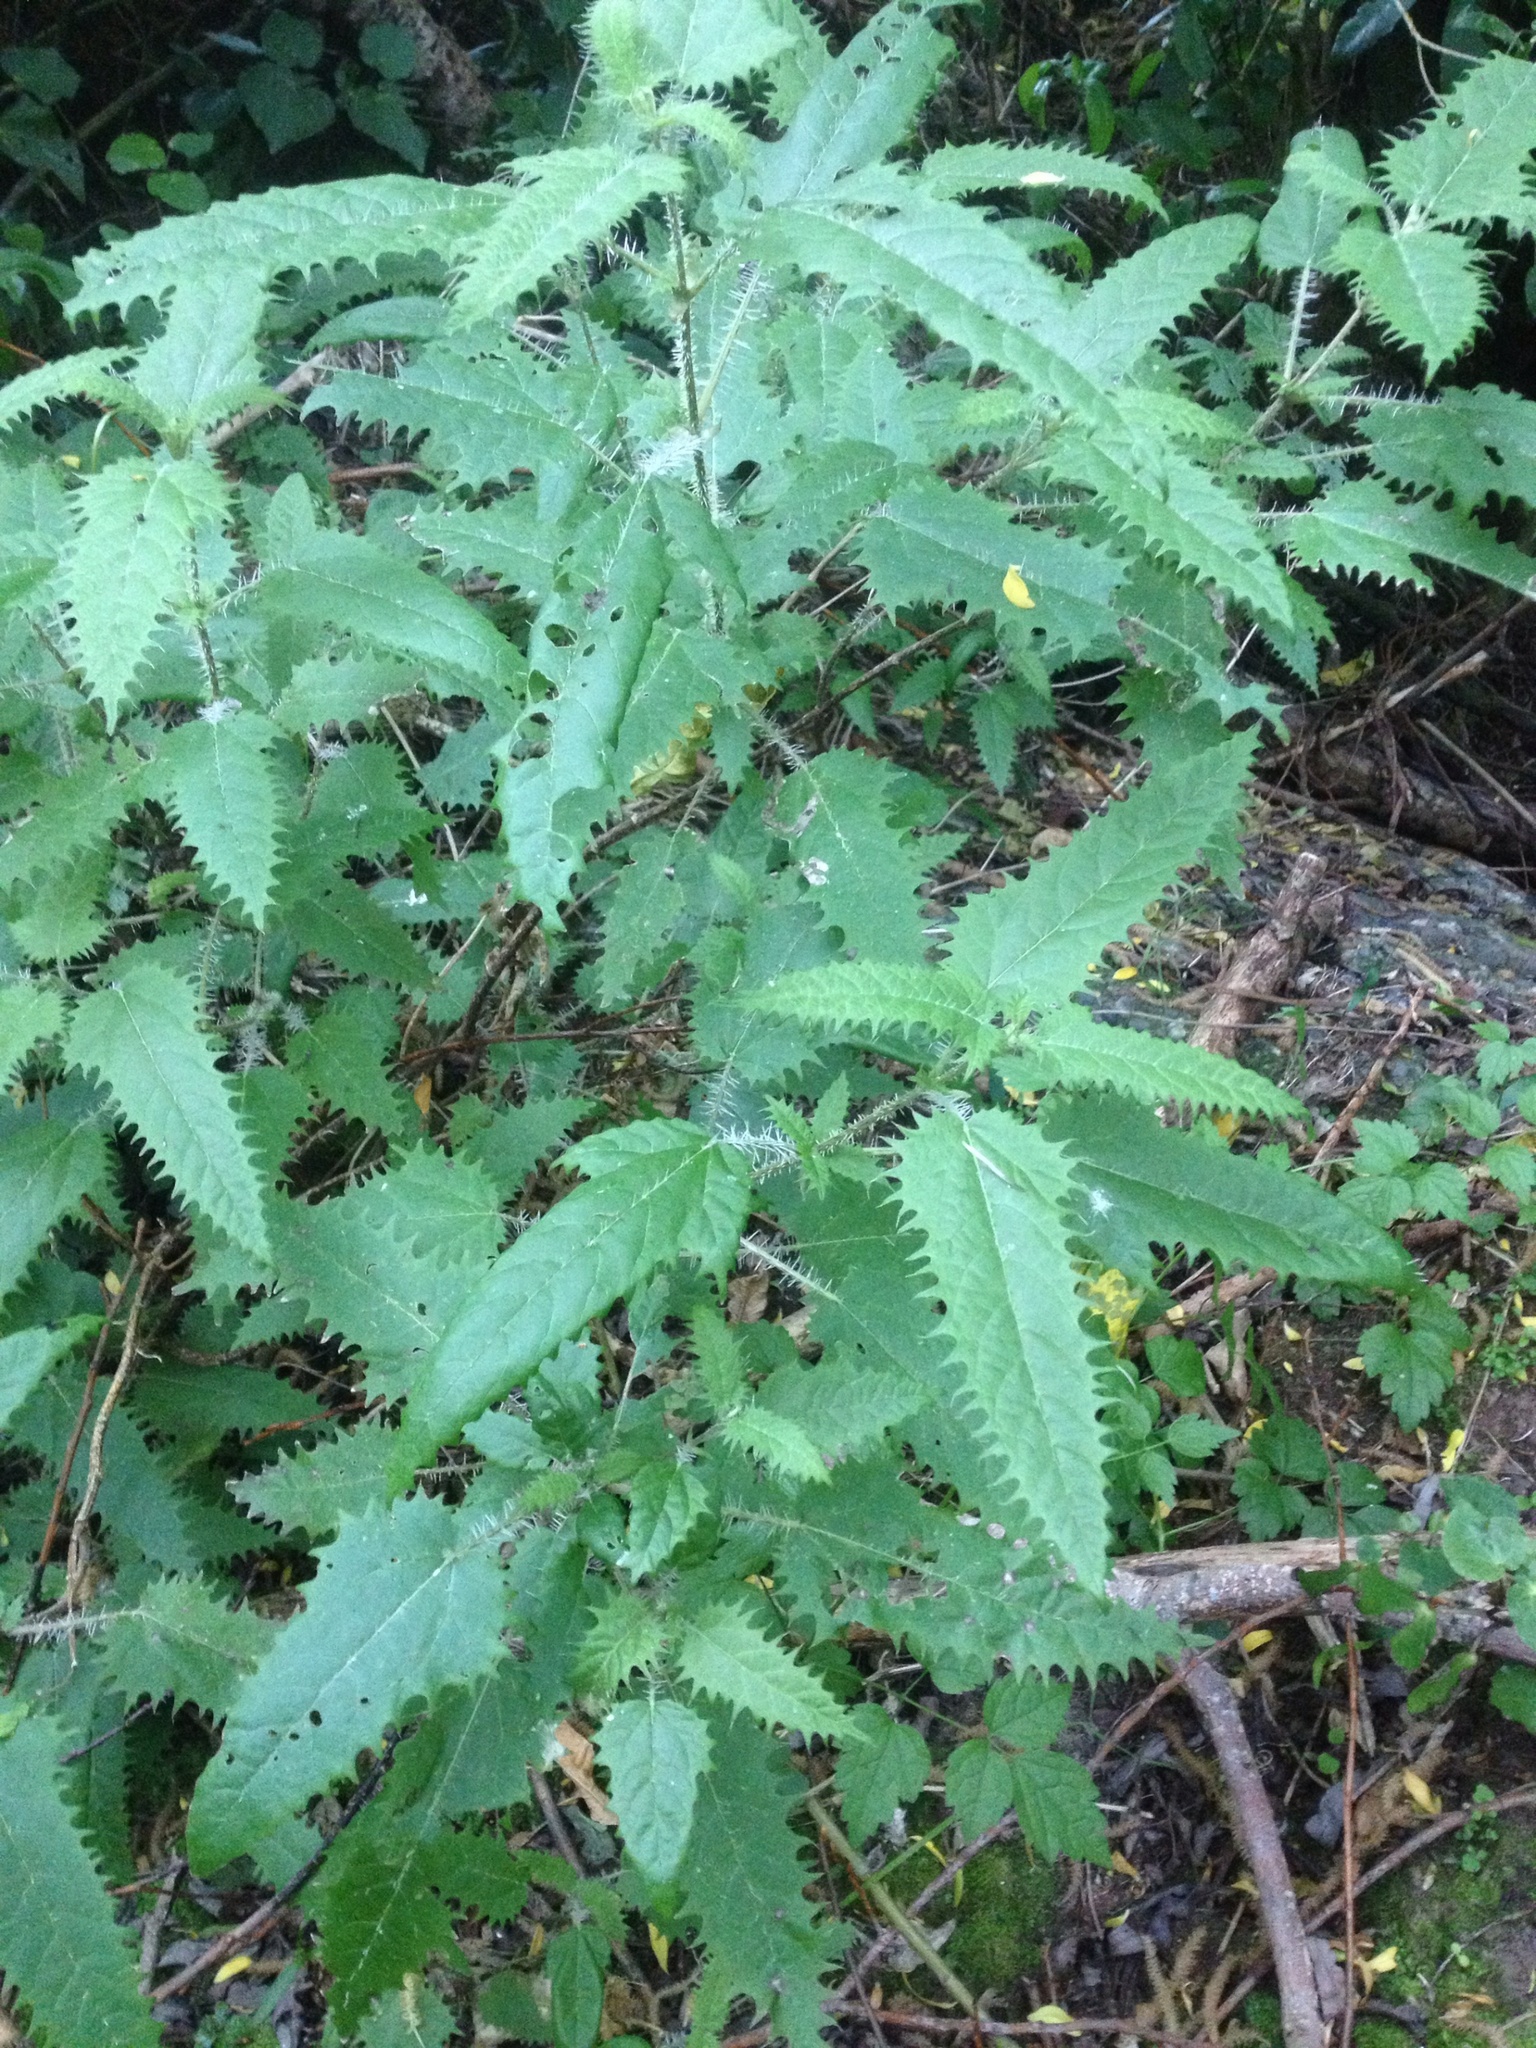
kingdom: Plantae
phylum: Tracheophyta
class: Magnoliopsida
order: Rosales
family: Urticaceae
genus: Urtica
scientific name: Urtica ferox
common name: Tree nettle
